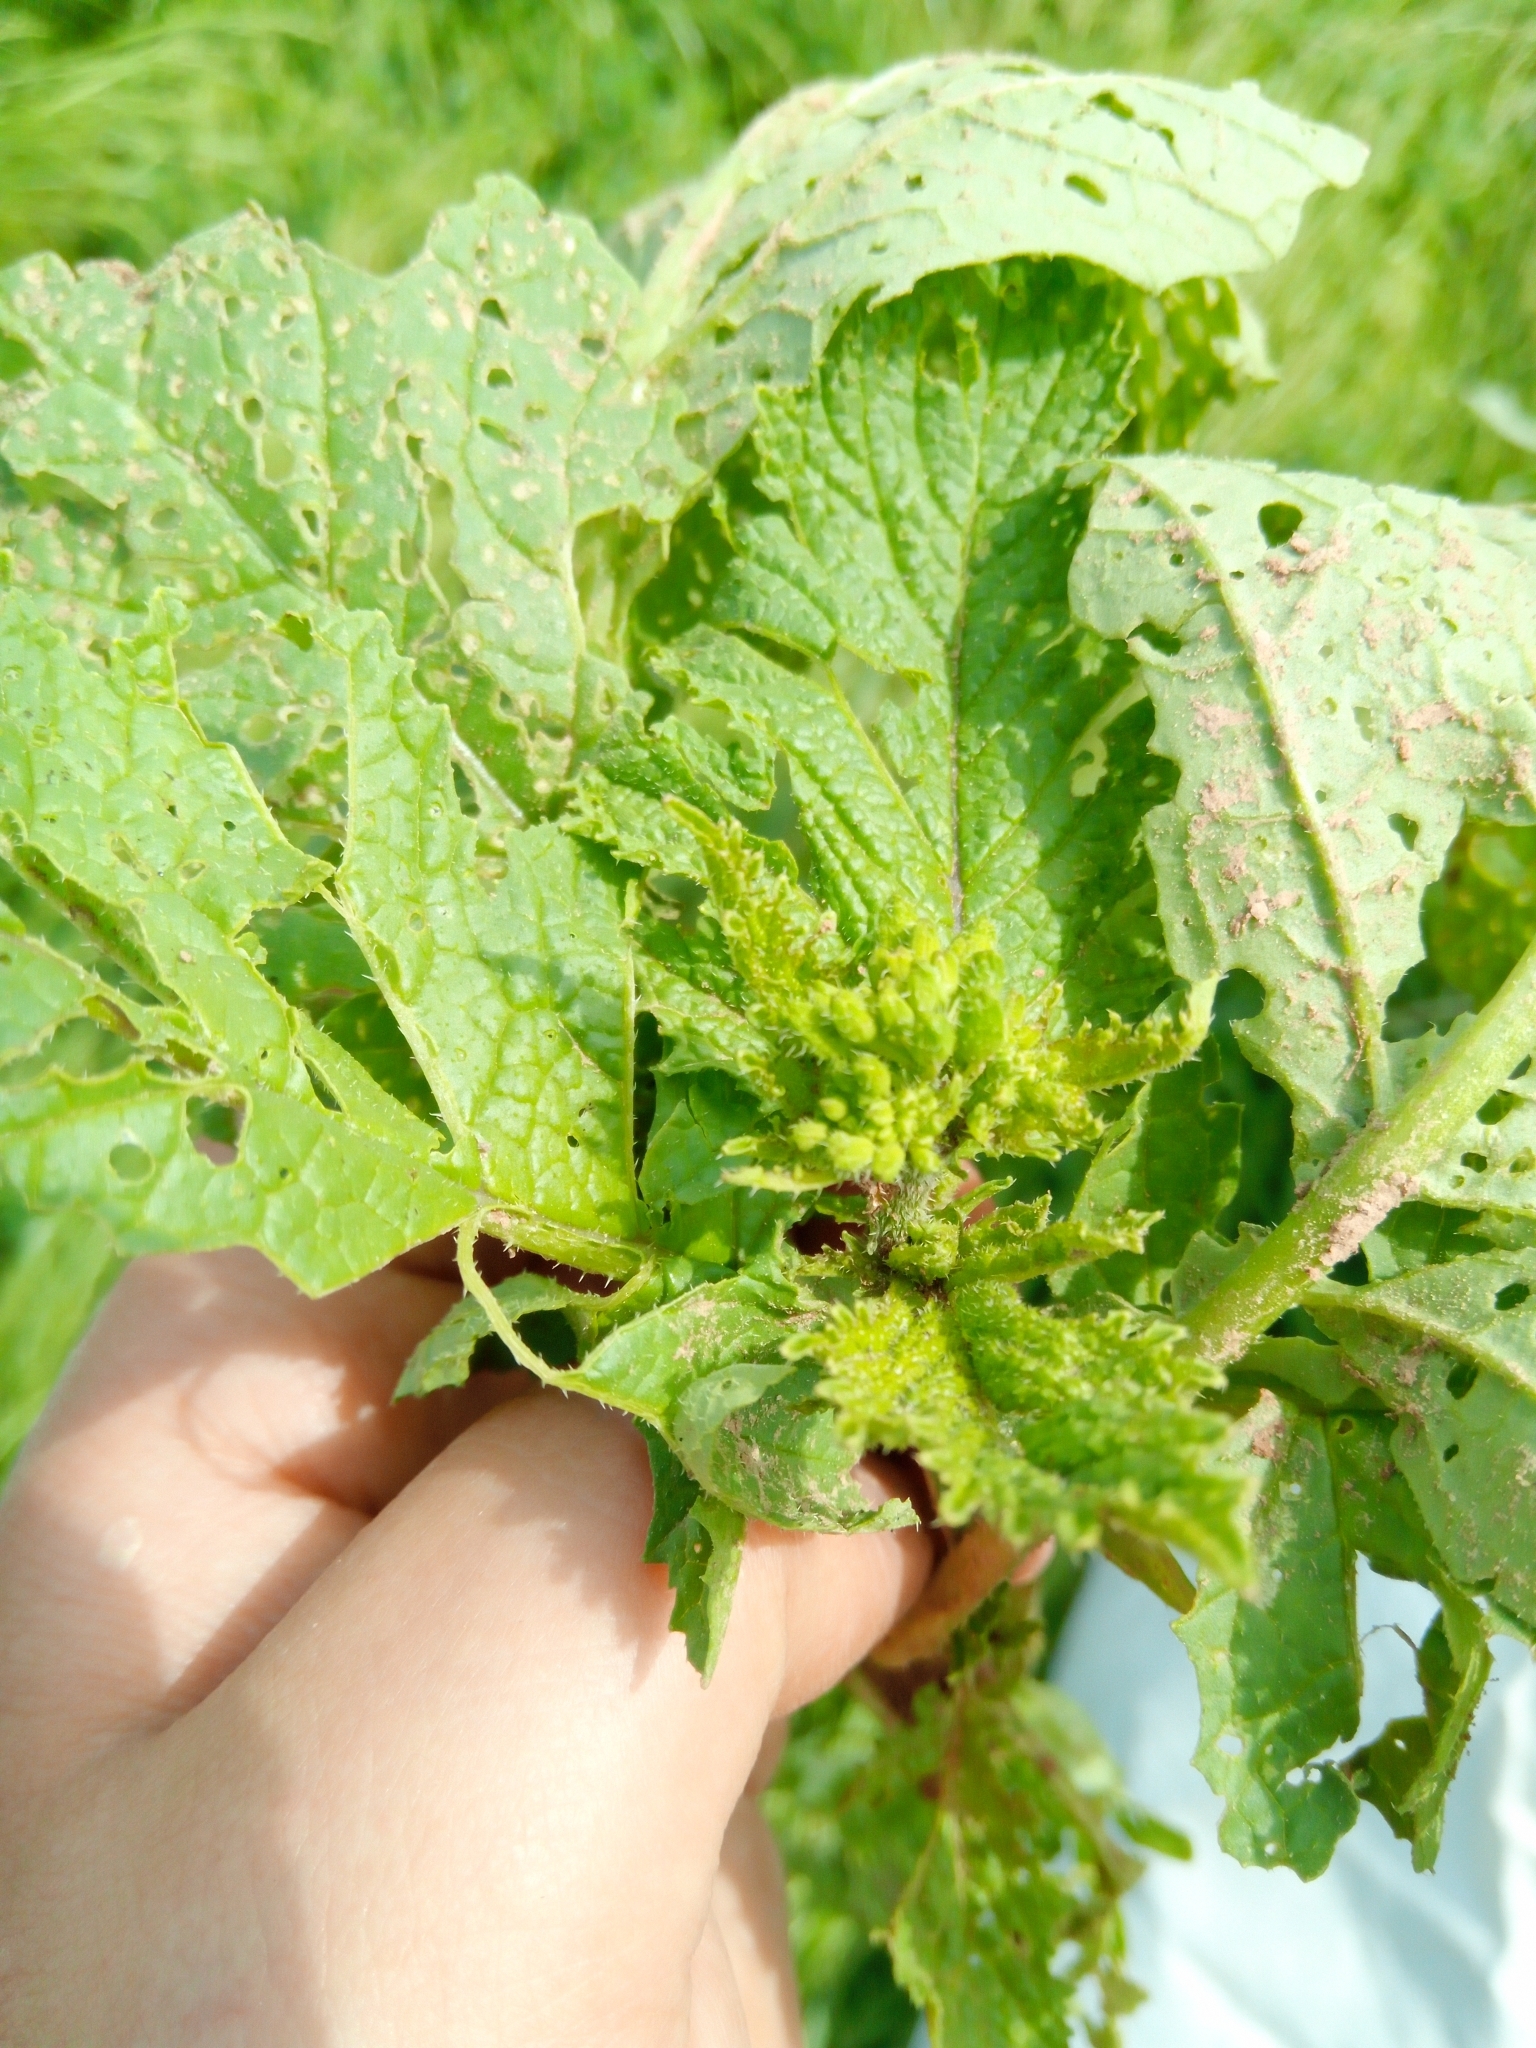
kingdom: Plantae
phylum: Tracheophyta
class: Magnoliopsida
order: Brassicales
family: Brassicaceae
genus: Sinapis
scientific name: Sinapis arvensis
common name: Charlock
